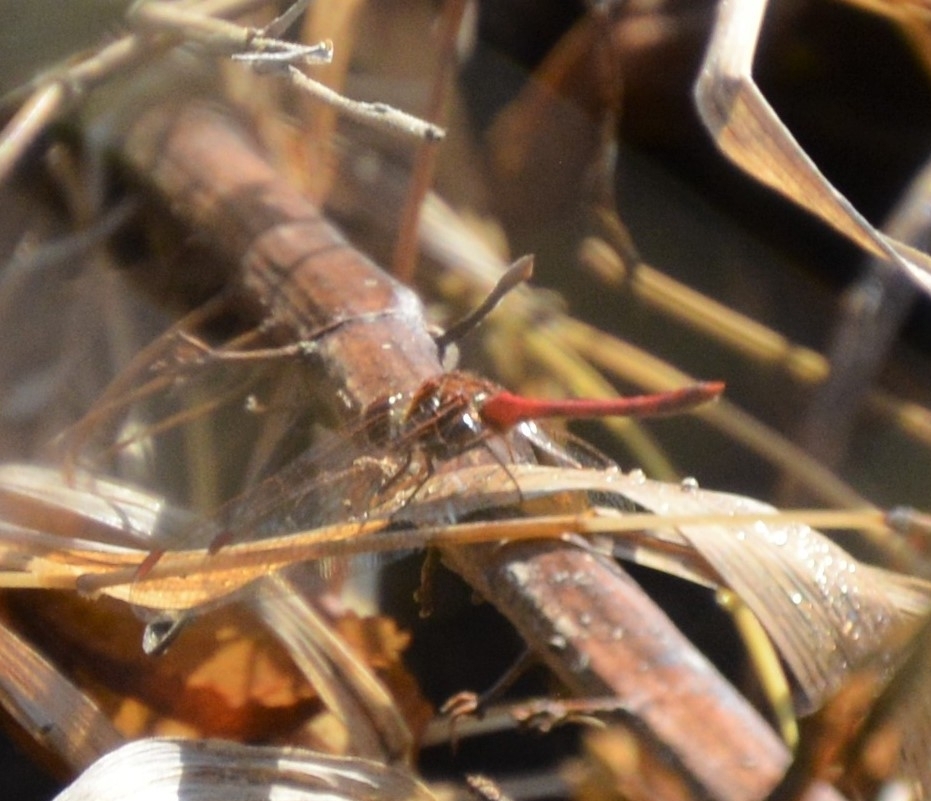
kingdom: Animalia
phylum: Arthropoda
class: Insecta
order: Odonata
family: Libellulidae
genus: Sympetrum
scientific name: Sympetrum vicinum
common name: Autumn meadowhawk
